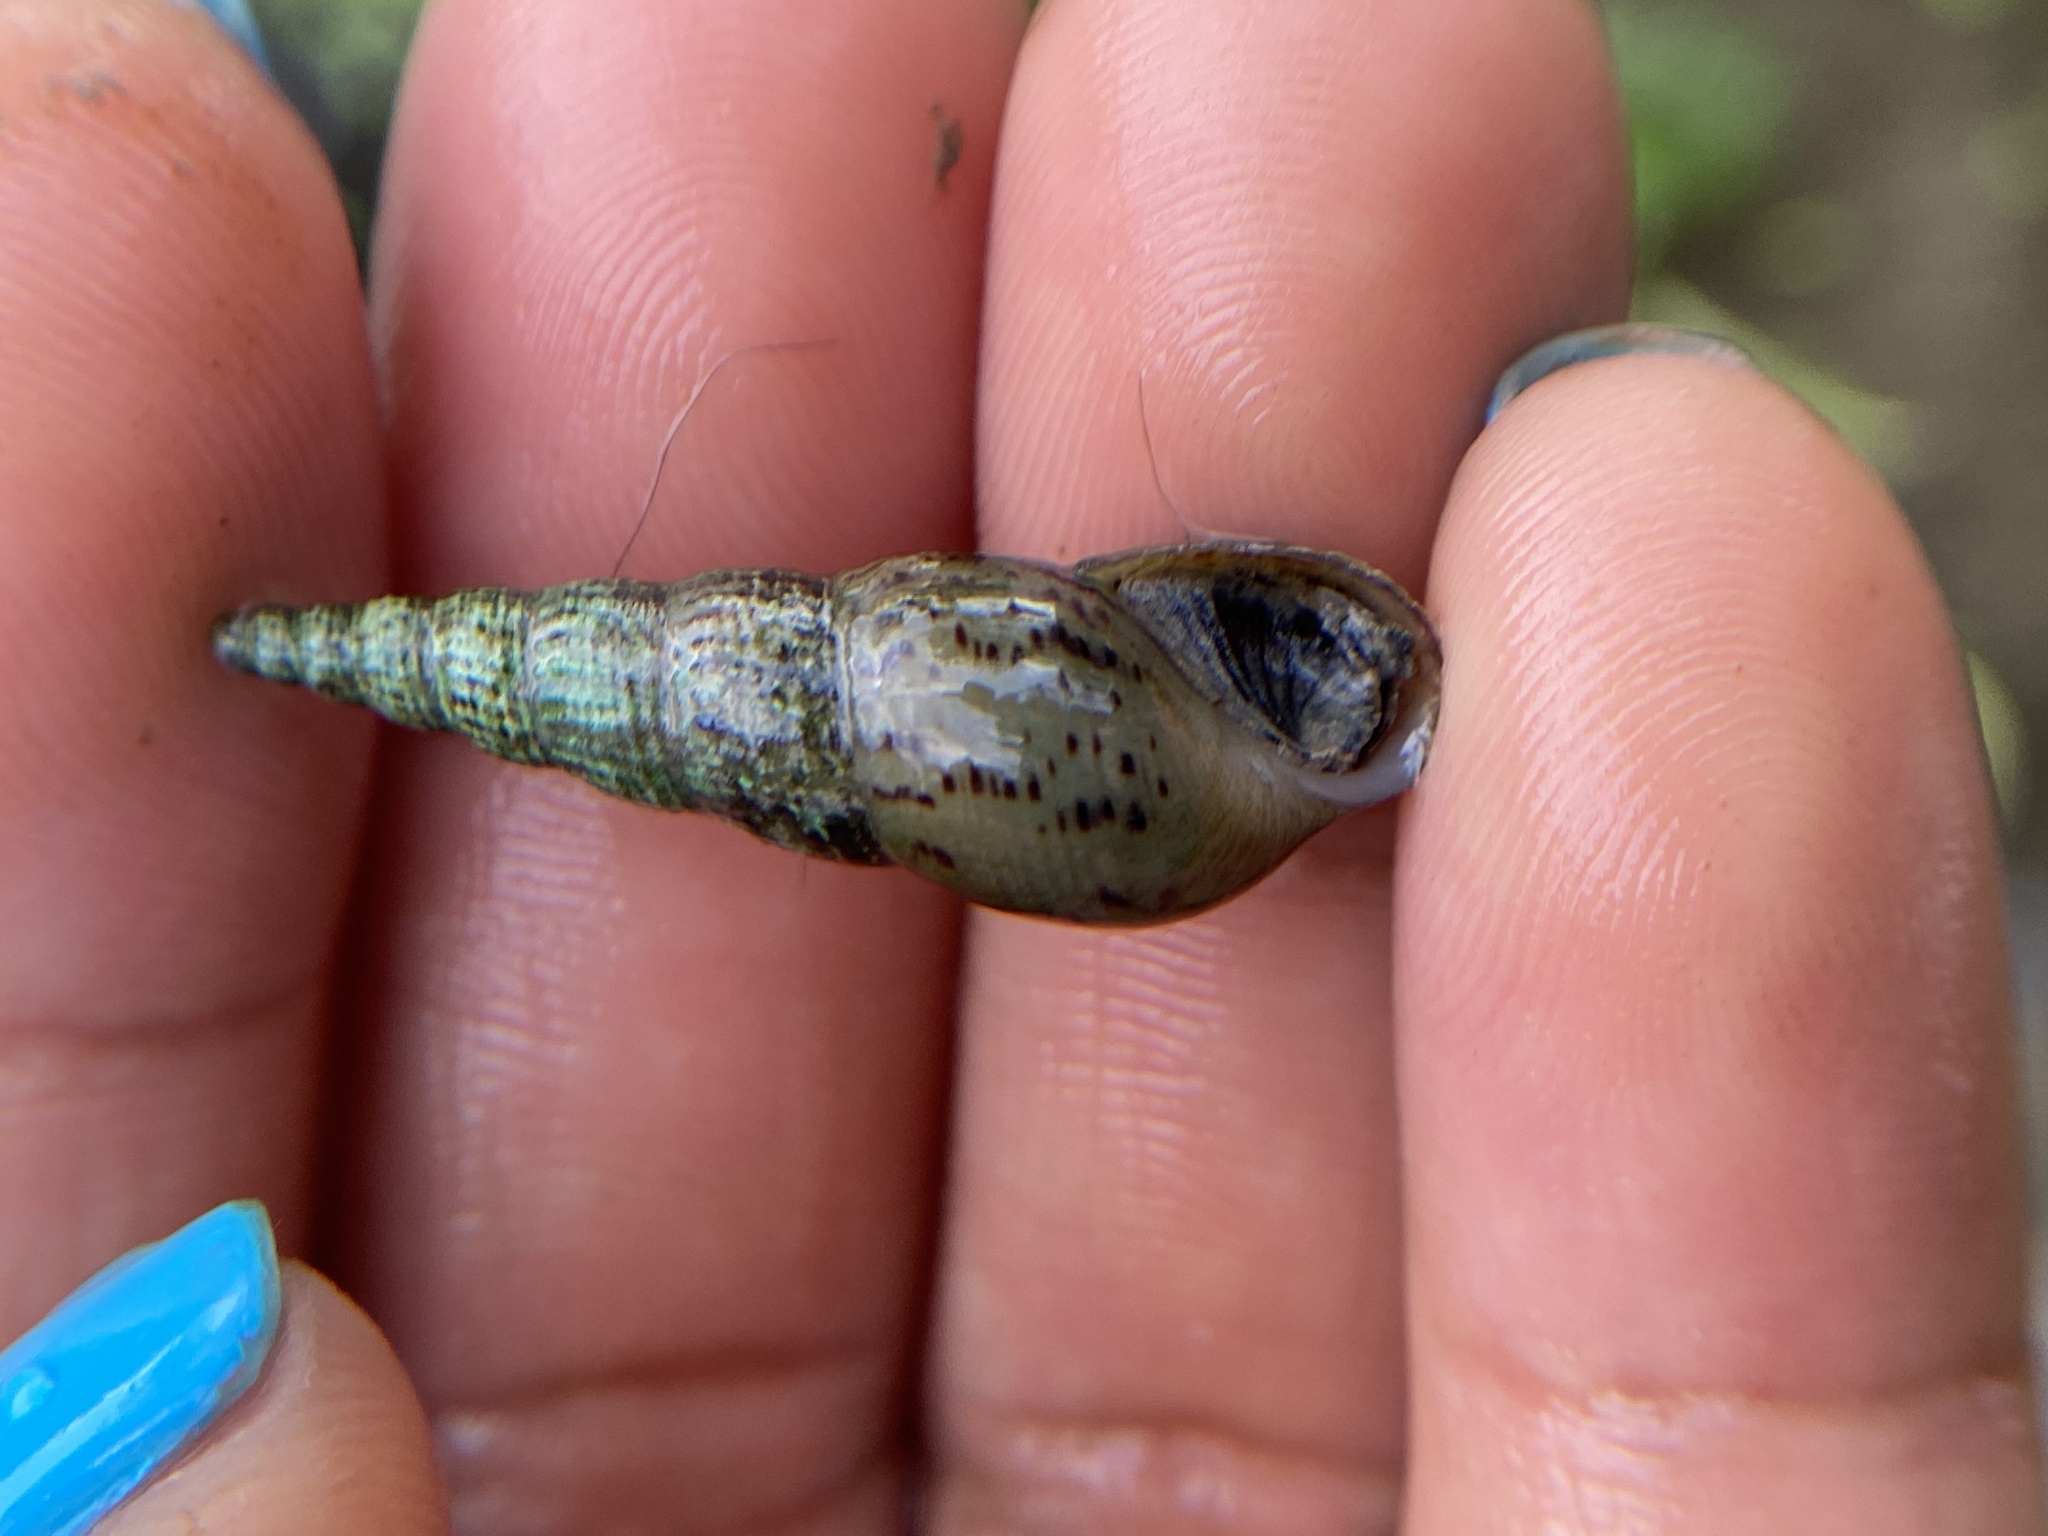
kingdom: Animalia
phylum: Mollusca
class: Gastropoda
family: Thiaridae
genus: Melanoides
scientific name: Melanoides tuberculata
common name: Red-rim melania
